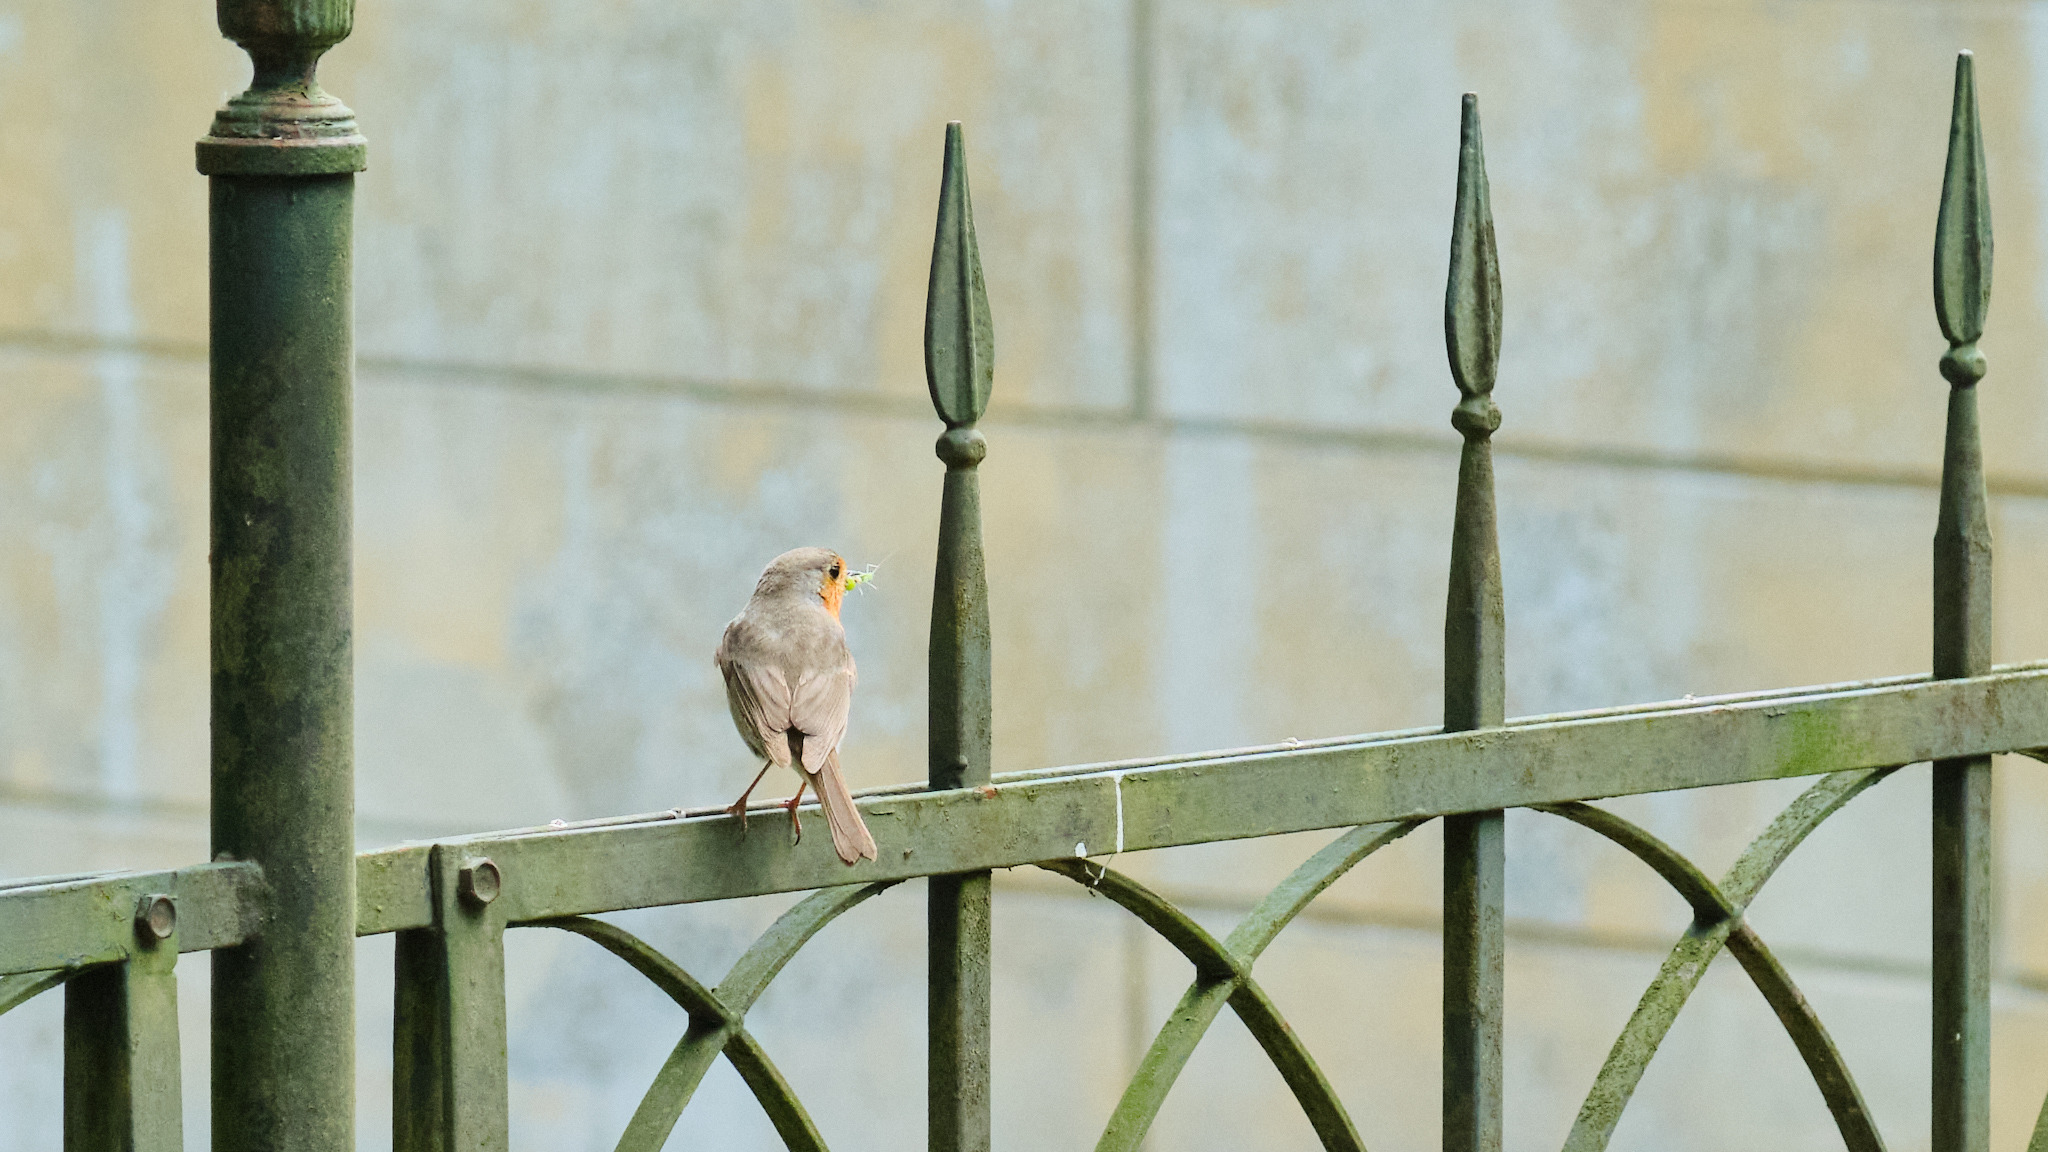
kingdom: Animalia
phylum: Chordata
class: Aves
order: Passeriformes
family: Muscicapidae
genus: Erithacus
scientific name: Erithacus rubecula
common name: European robin
